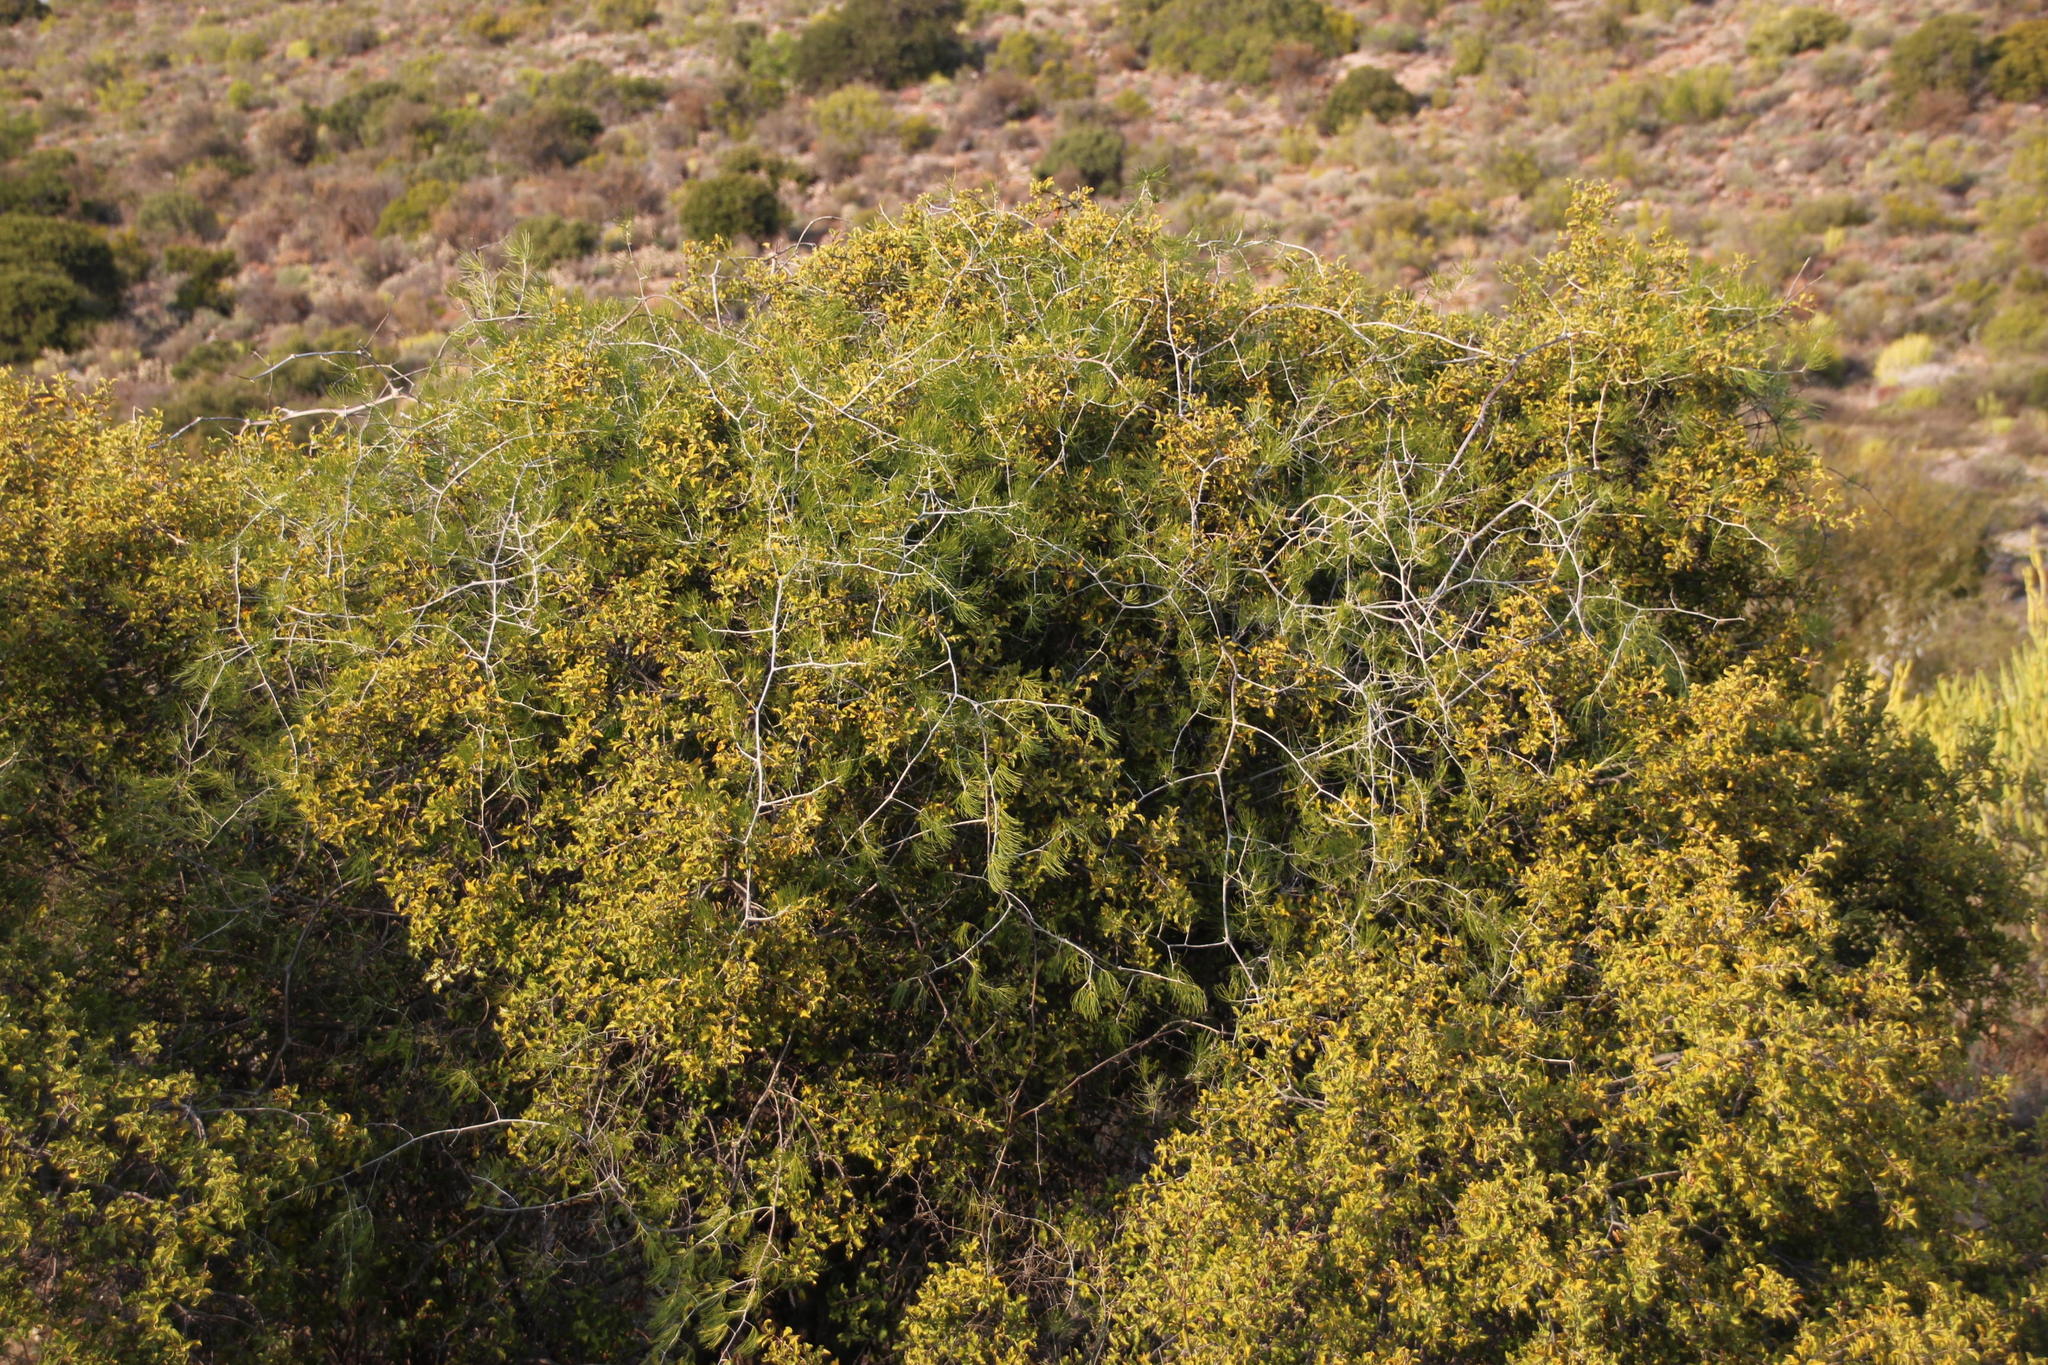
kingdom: Plantae
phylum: Tracheophyta
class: Liliopsida
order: Asparagales
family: Asparagaceae
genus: Asparagus
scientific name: Asparagus retrofractus
